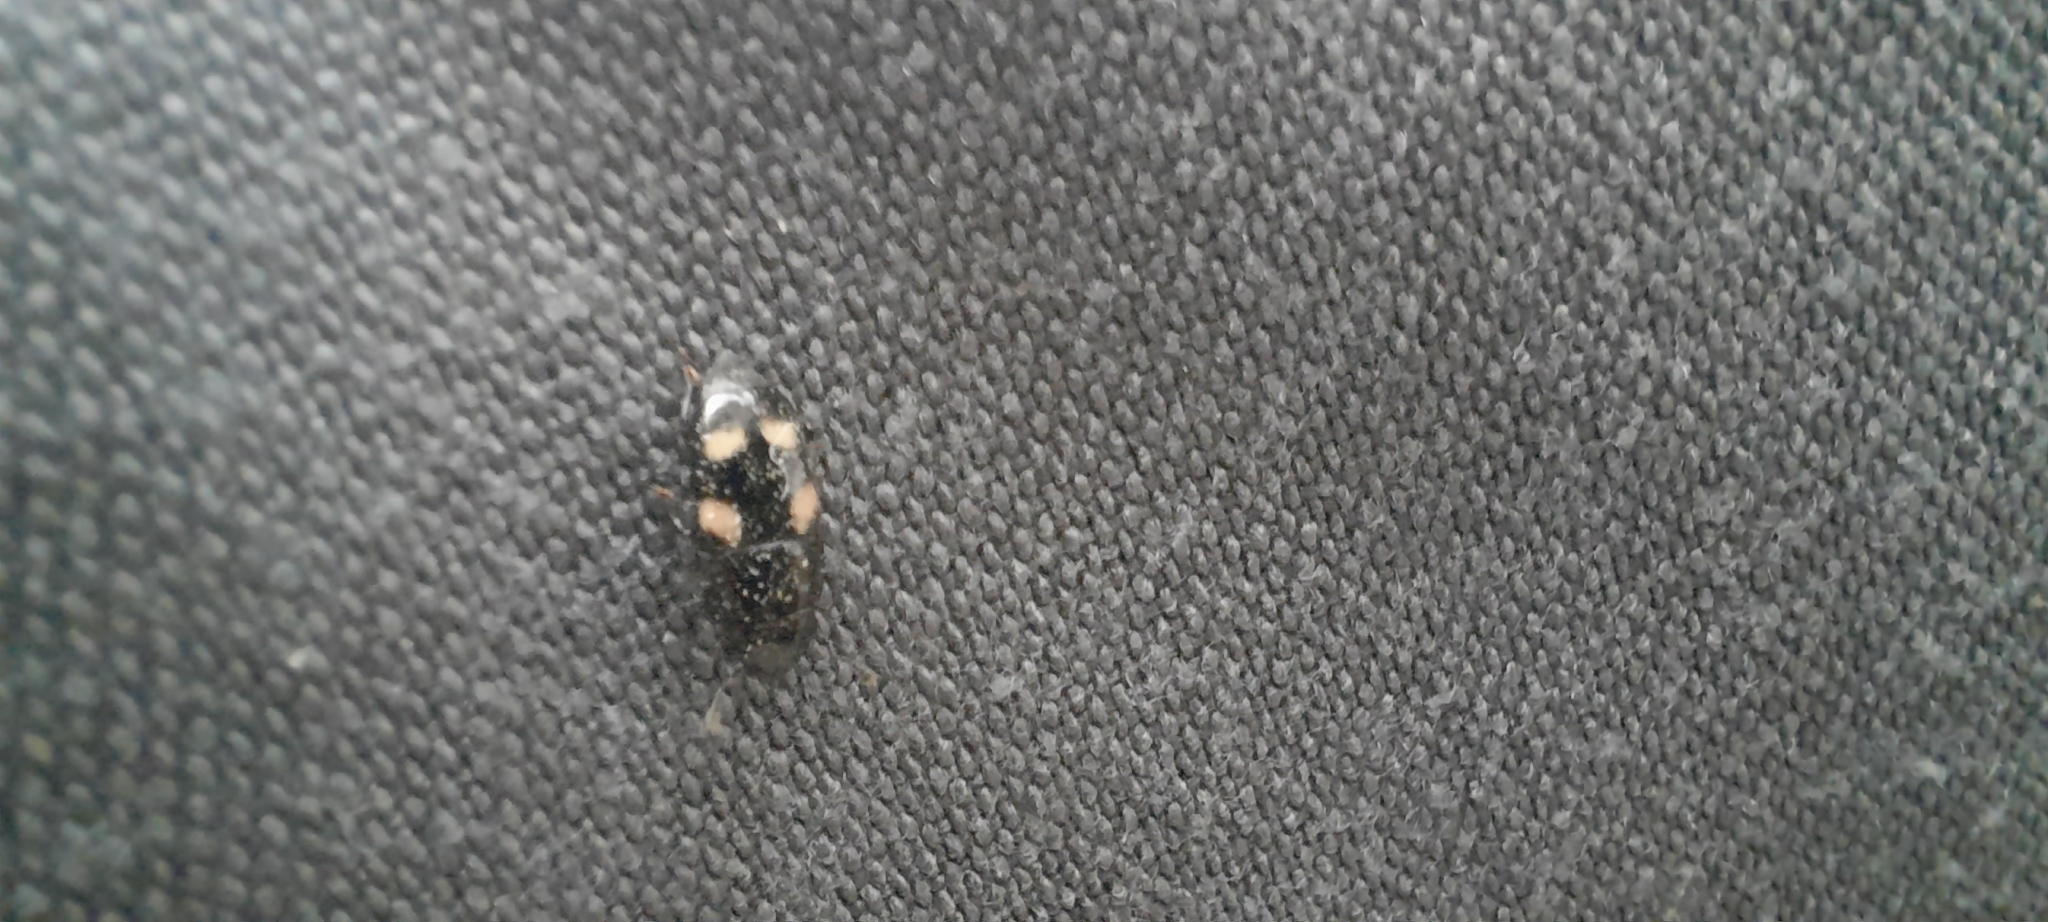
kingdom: Animalia
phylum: Arthropoda
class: Insecta
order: Coleoptera
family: Nitidulidae
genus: Glischrochilus
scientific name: Glischrochilus quadrisignatus
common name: Picnic beetle
